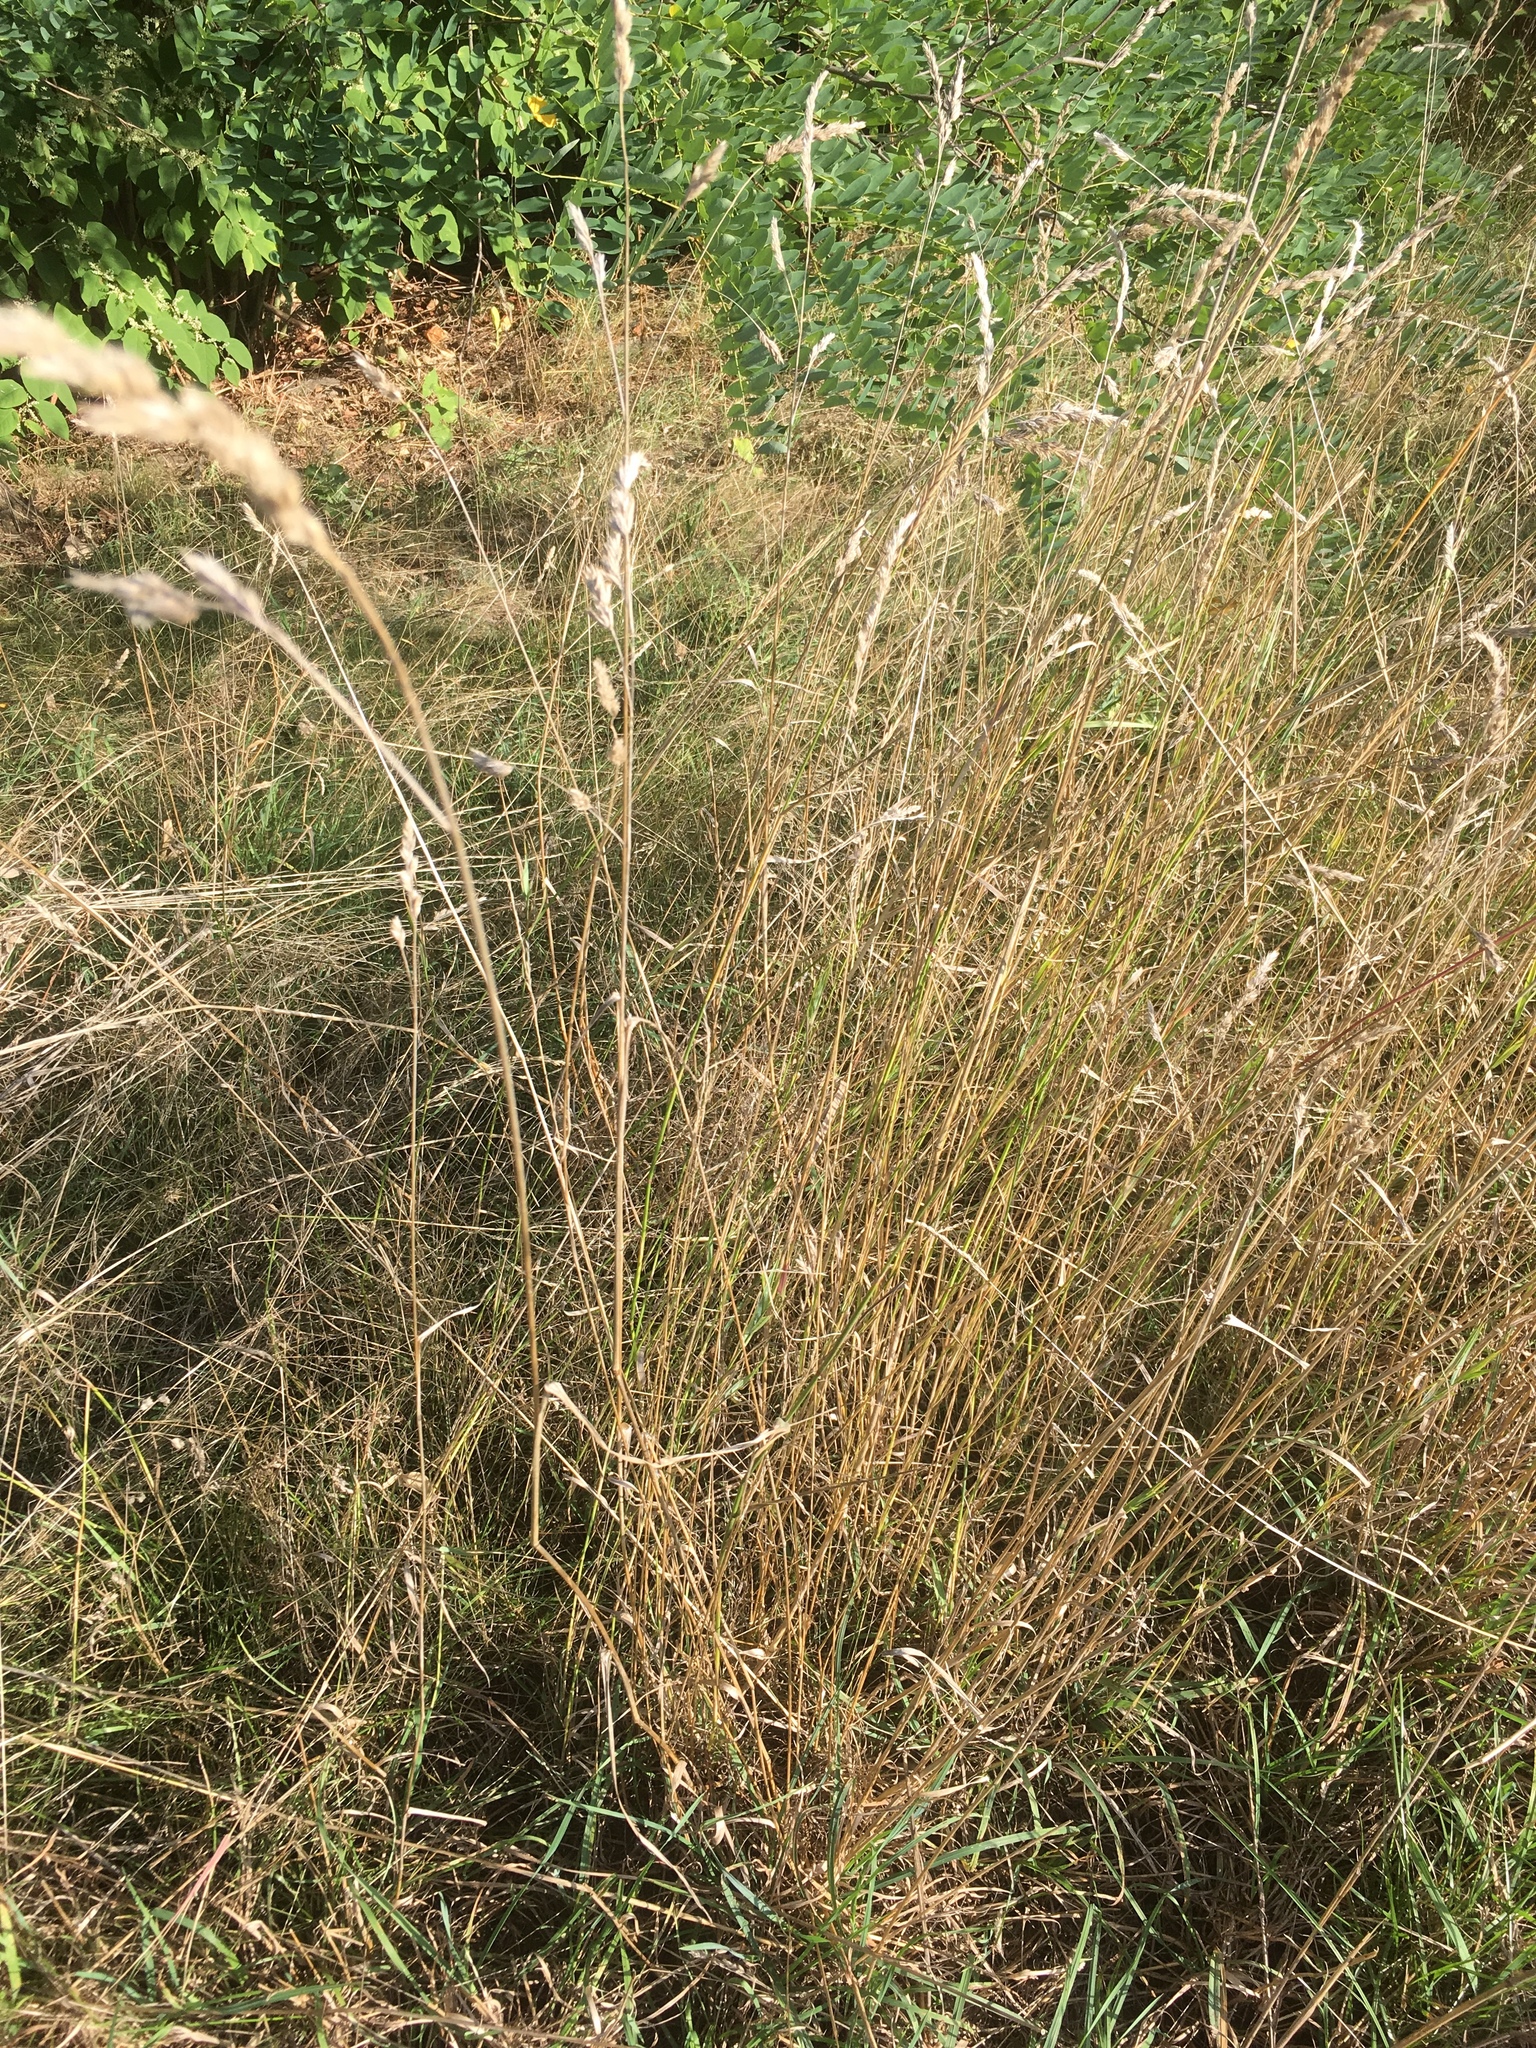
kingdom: Plantae
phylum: Tracheophyta
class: Liliopsida
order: Poales
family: Poaceae
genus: Dactylis
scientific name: Dactylis glomerata
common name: Orchardgrass
